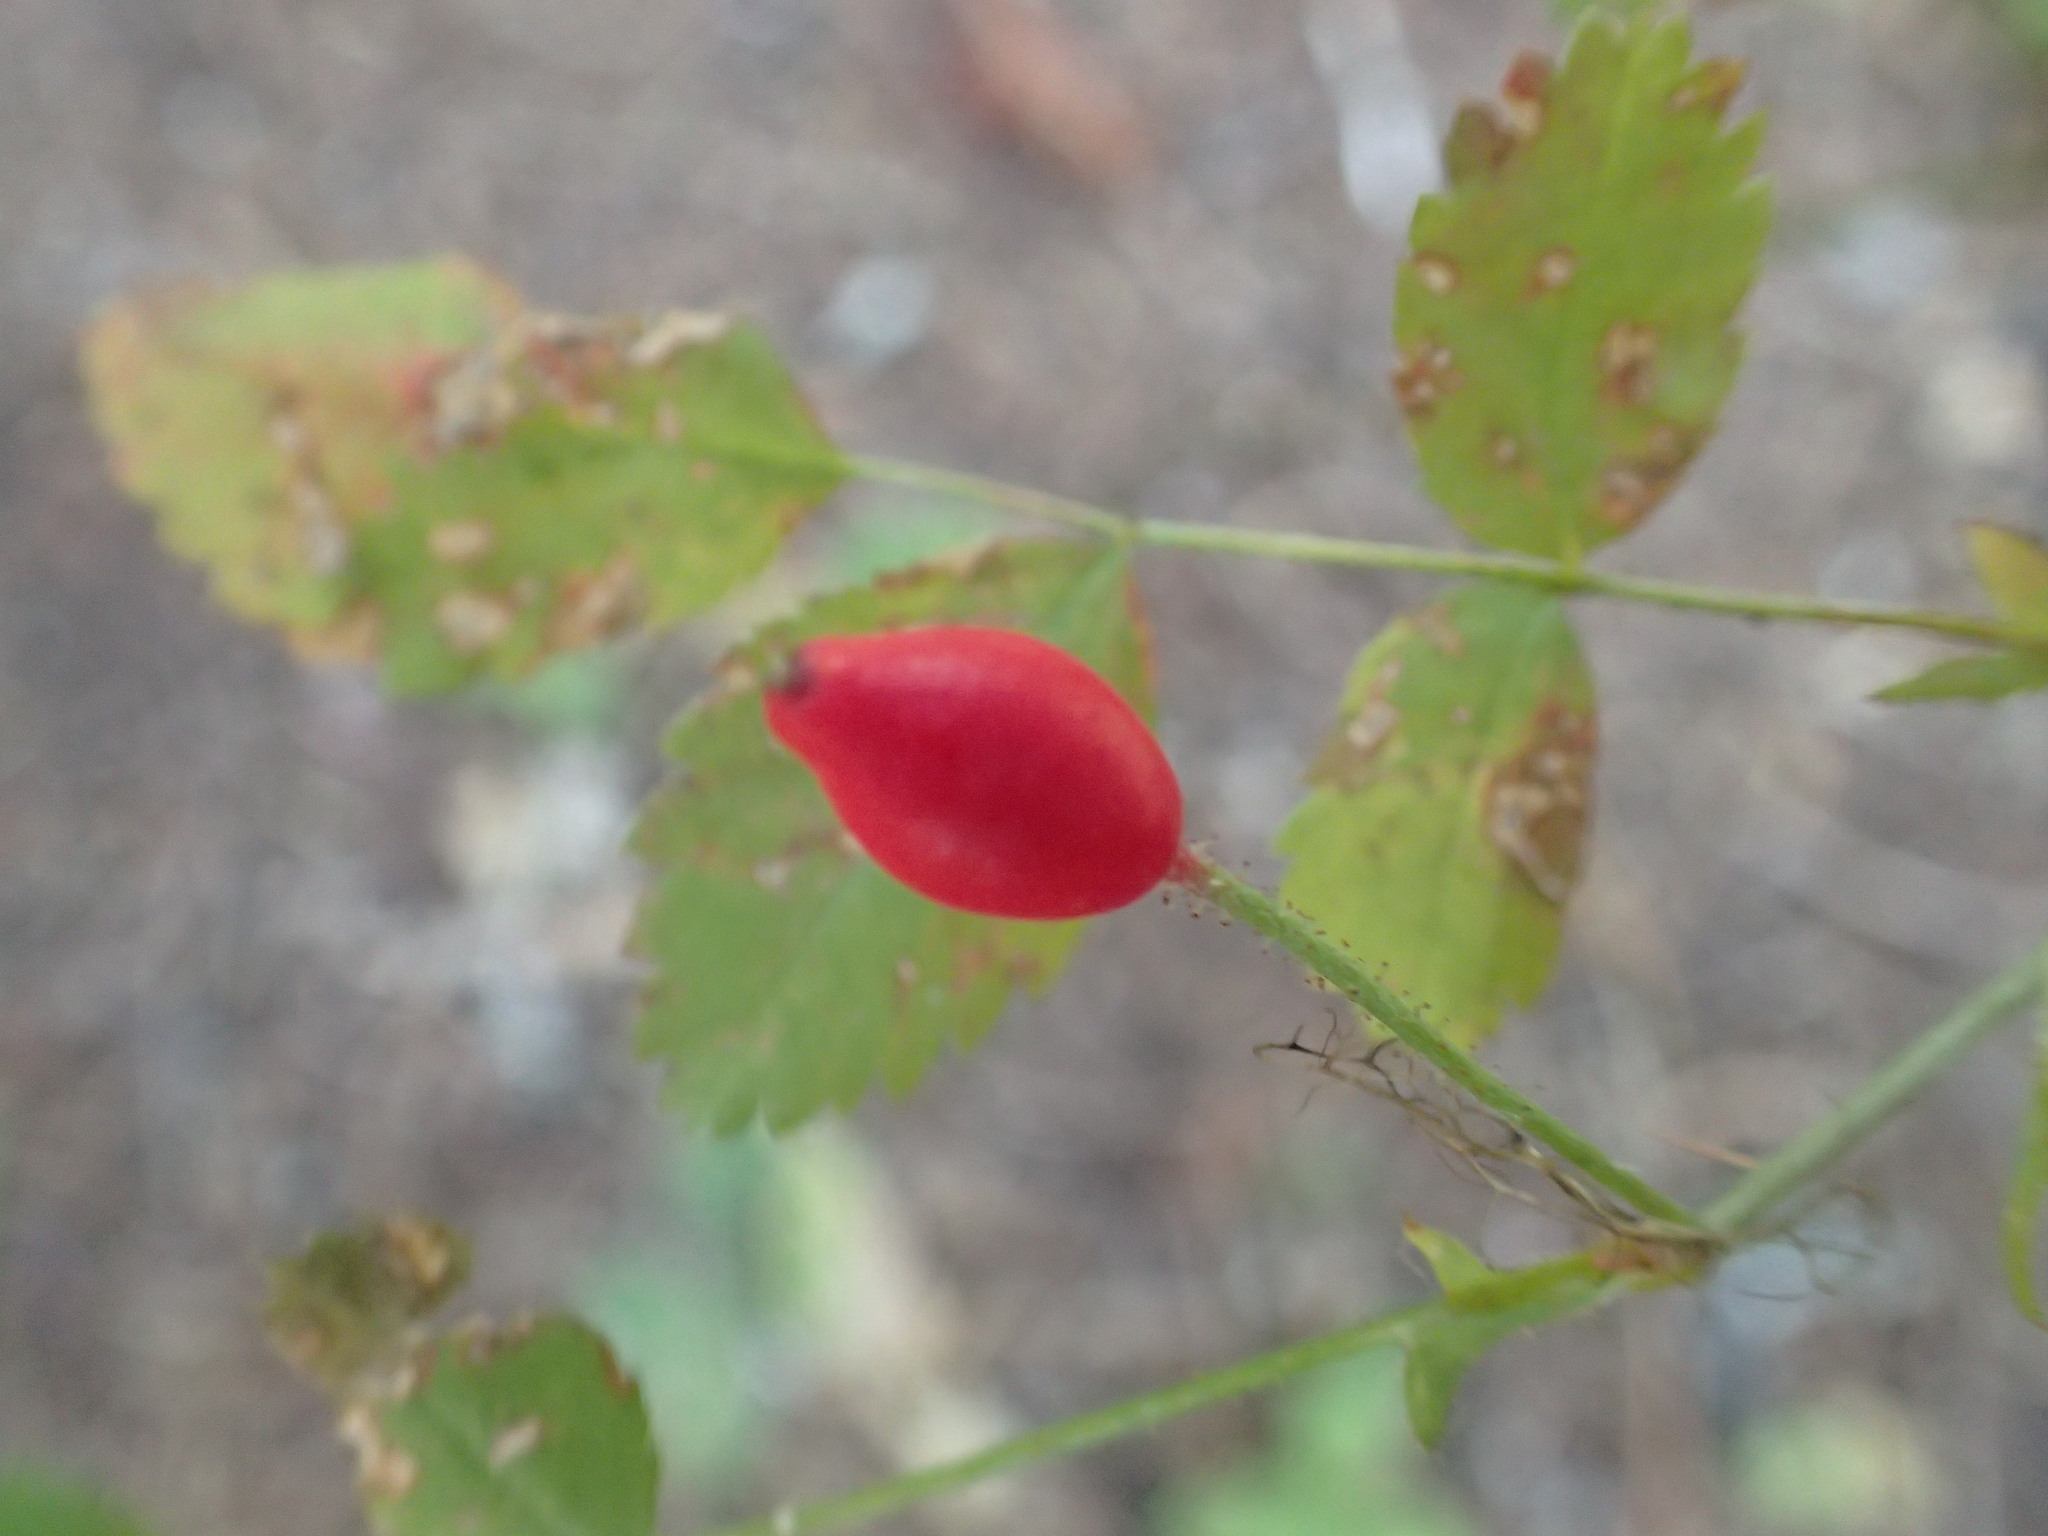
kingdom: Plantae
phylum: Tracheophyta
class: Magnoliopsida
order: Rosales
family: Rosaceae
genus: Rosa
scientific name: Rosa gymnocarpa
